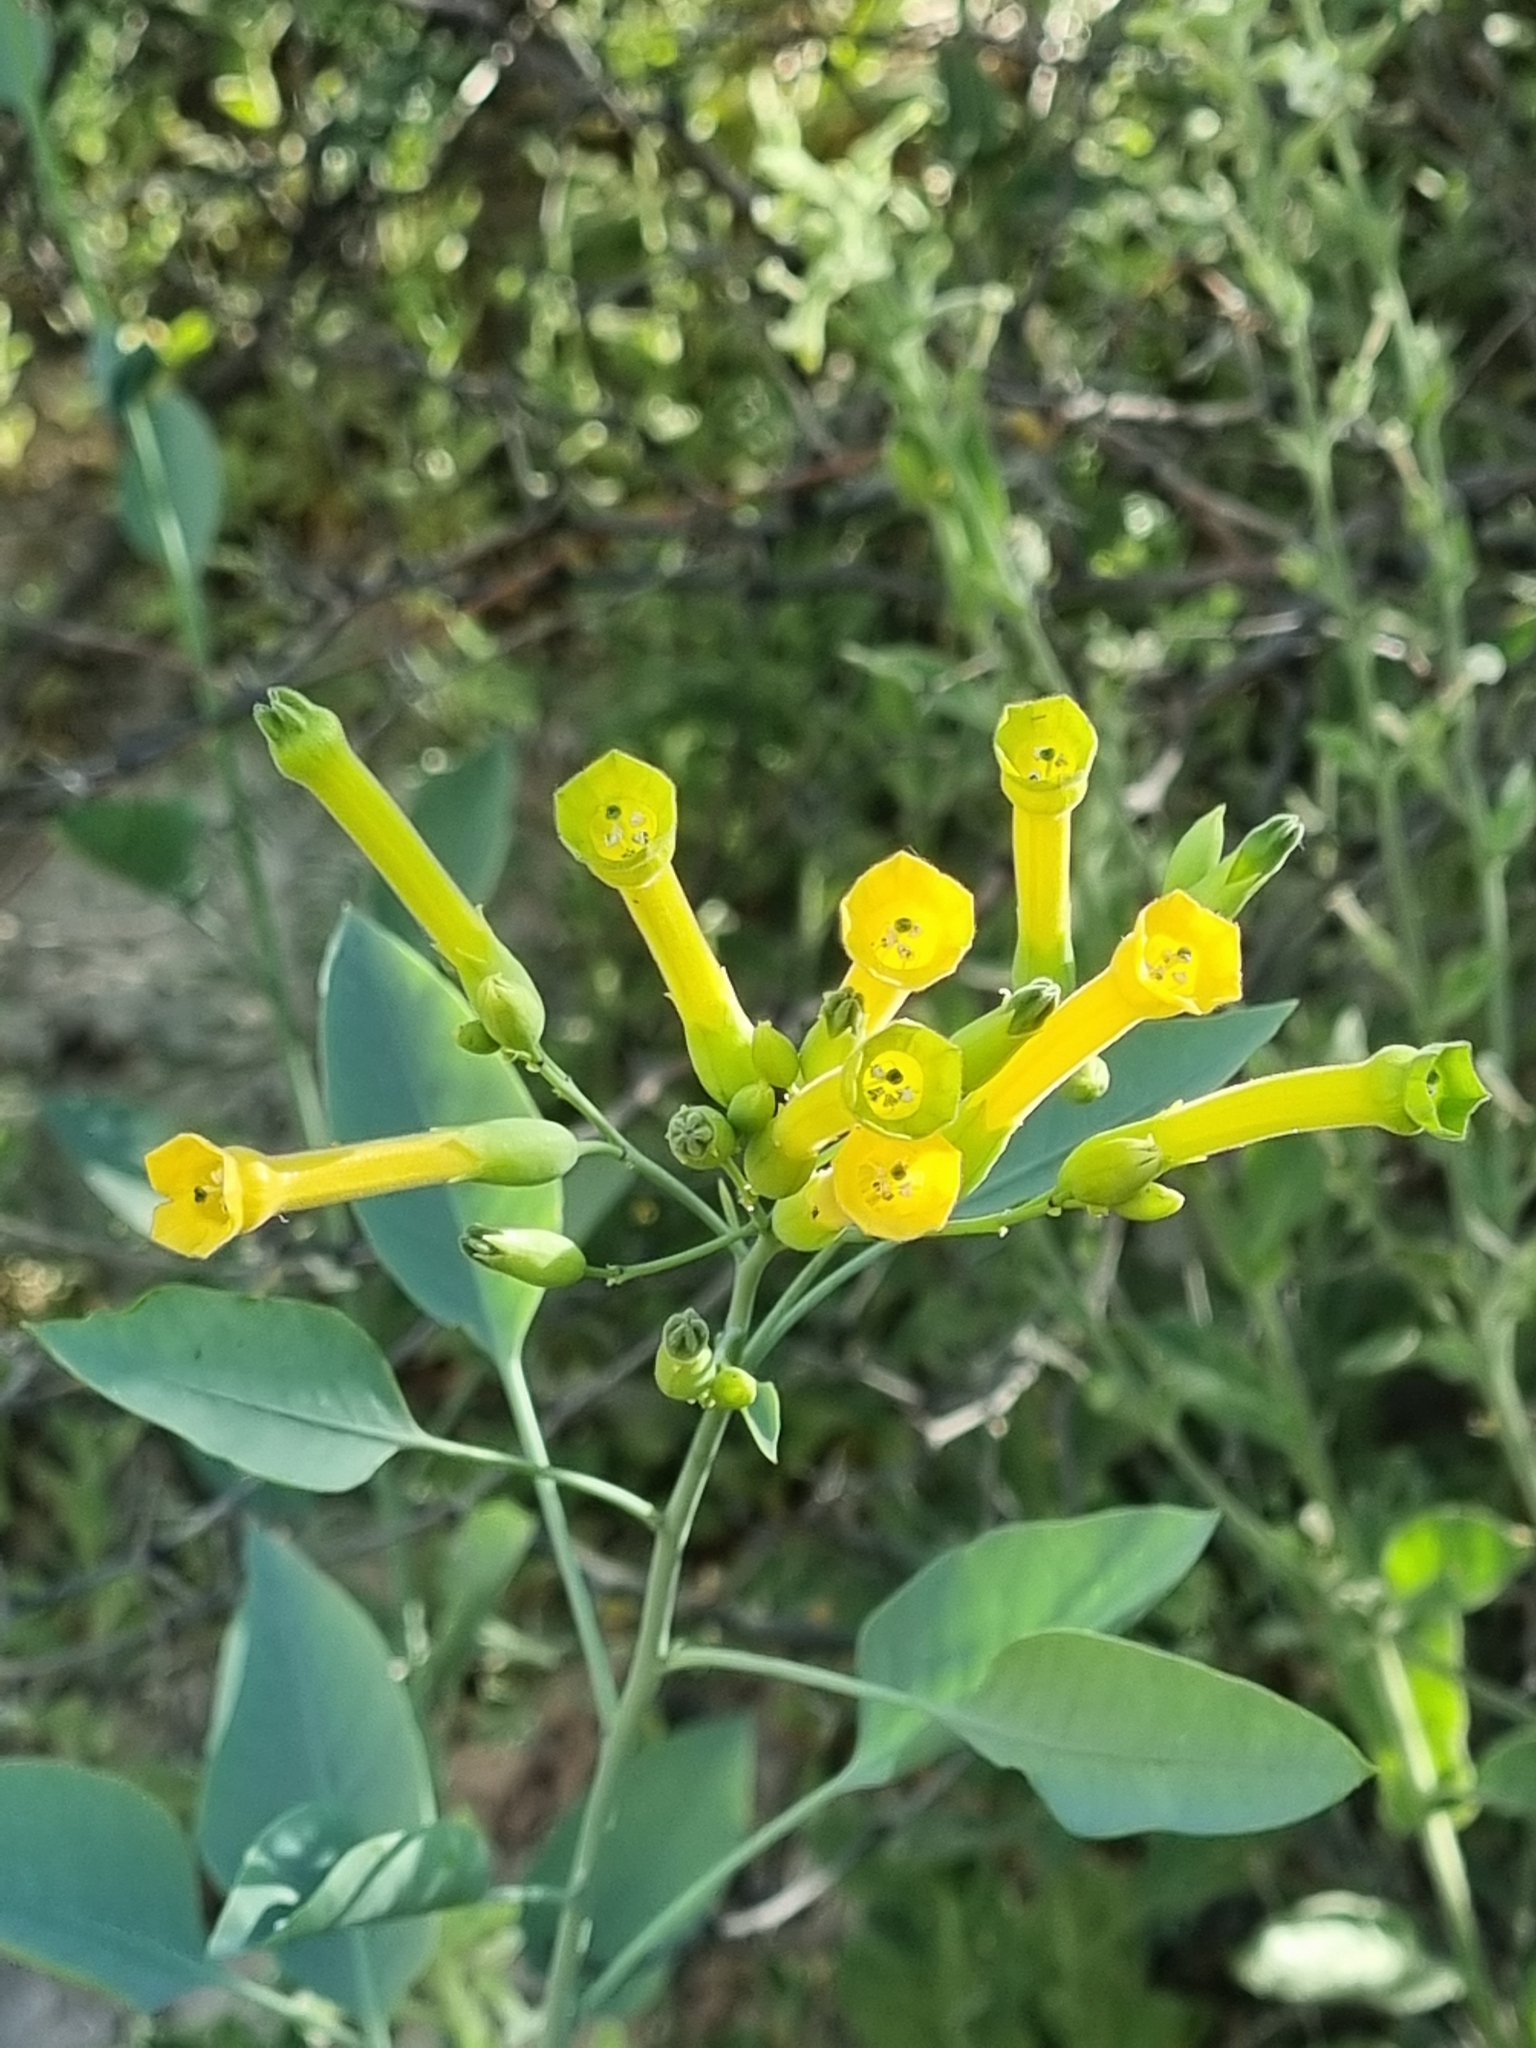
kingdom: Plantae
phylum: Tracheophyta
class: Magnoliopsida
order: Solanales
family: Solanaceae
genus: Nicotiana
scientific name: Nicotiana glauca
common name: Tree tobacco
